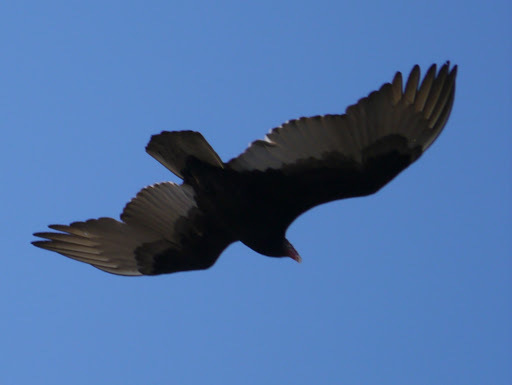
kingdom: Animalia
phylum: Chordata
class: Aves
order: Accipitriformes
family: Cathartidae
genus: Cathartes
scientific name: Cathartes aura
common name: Turkey vulture
